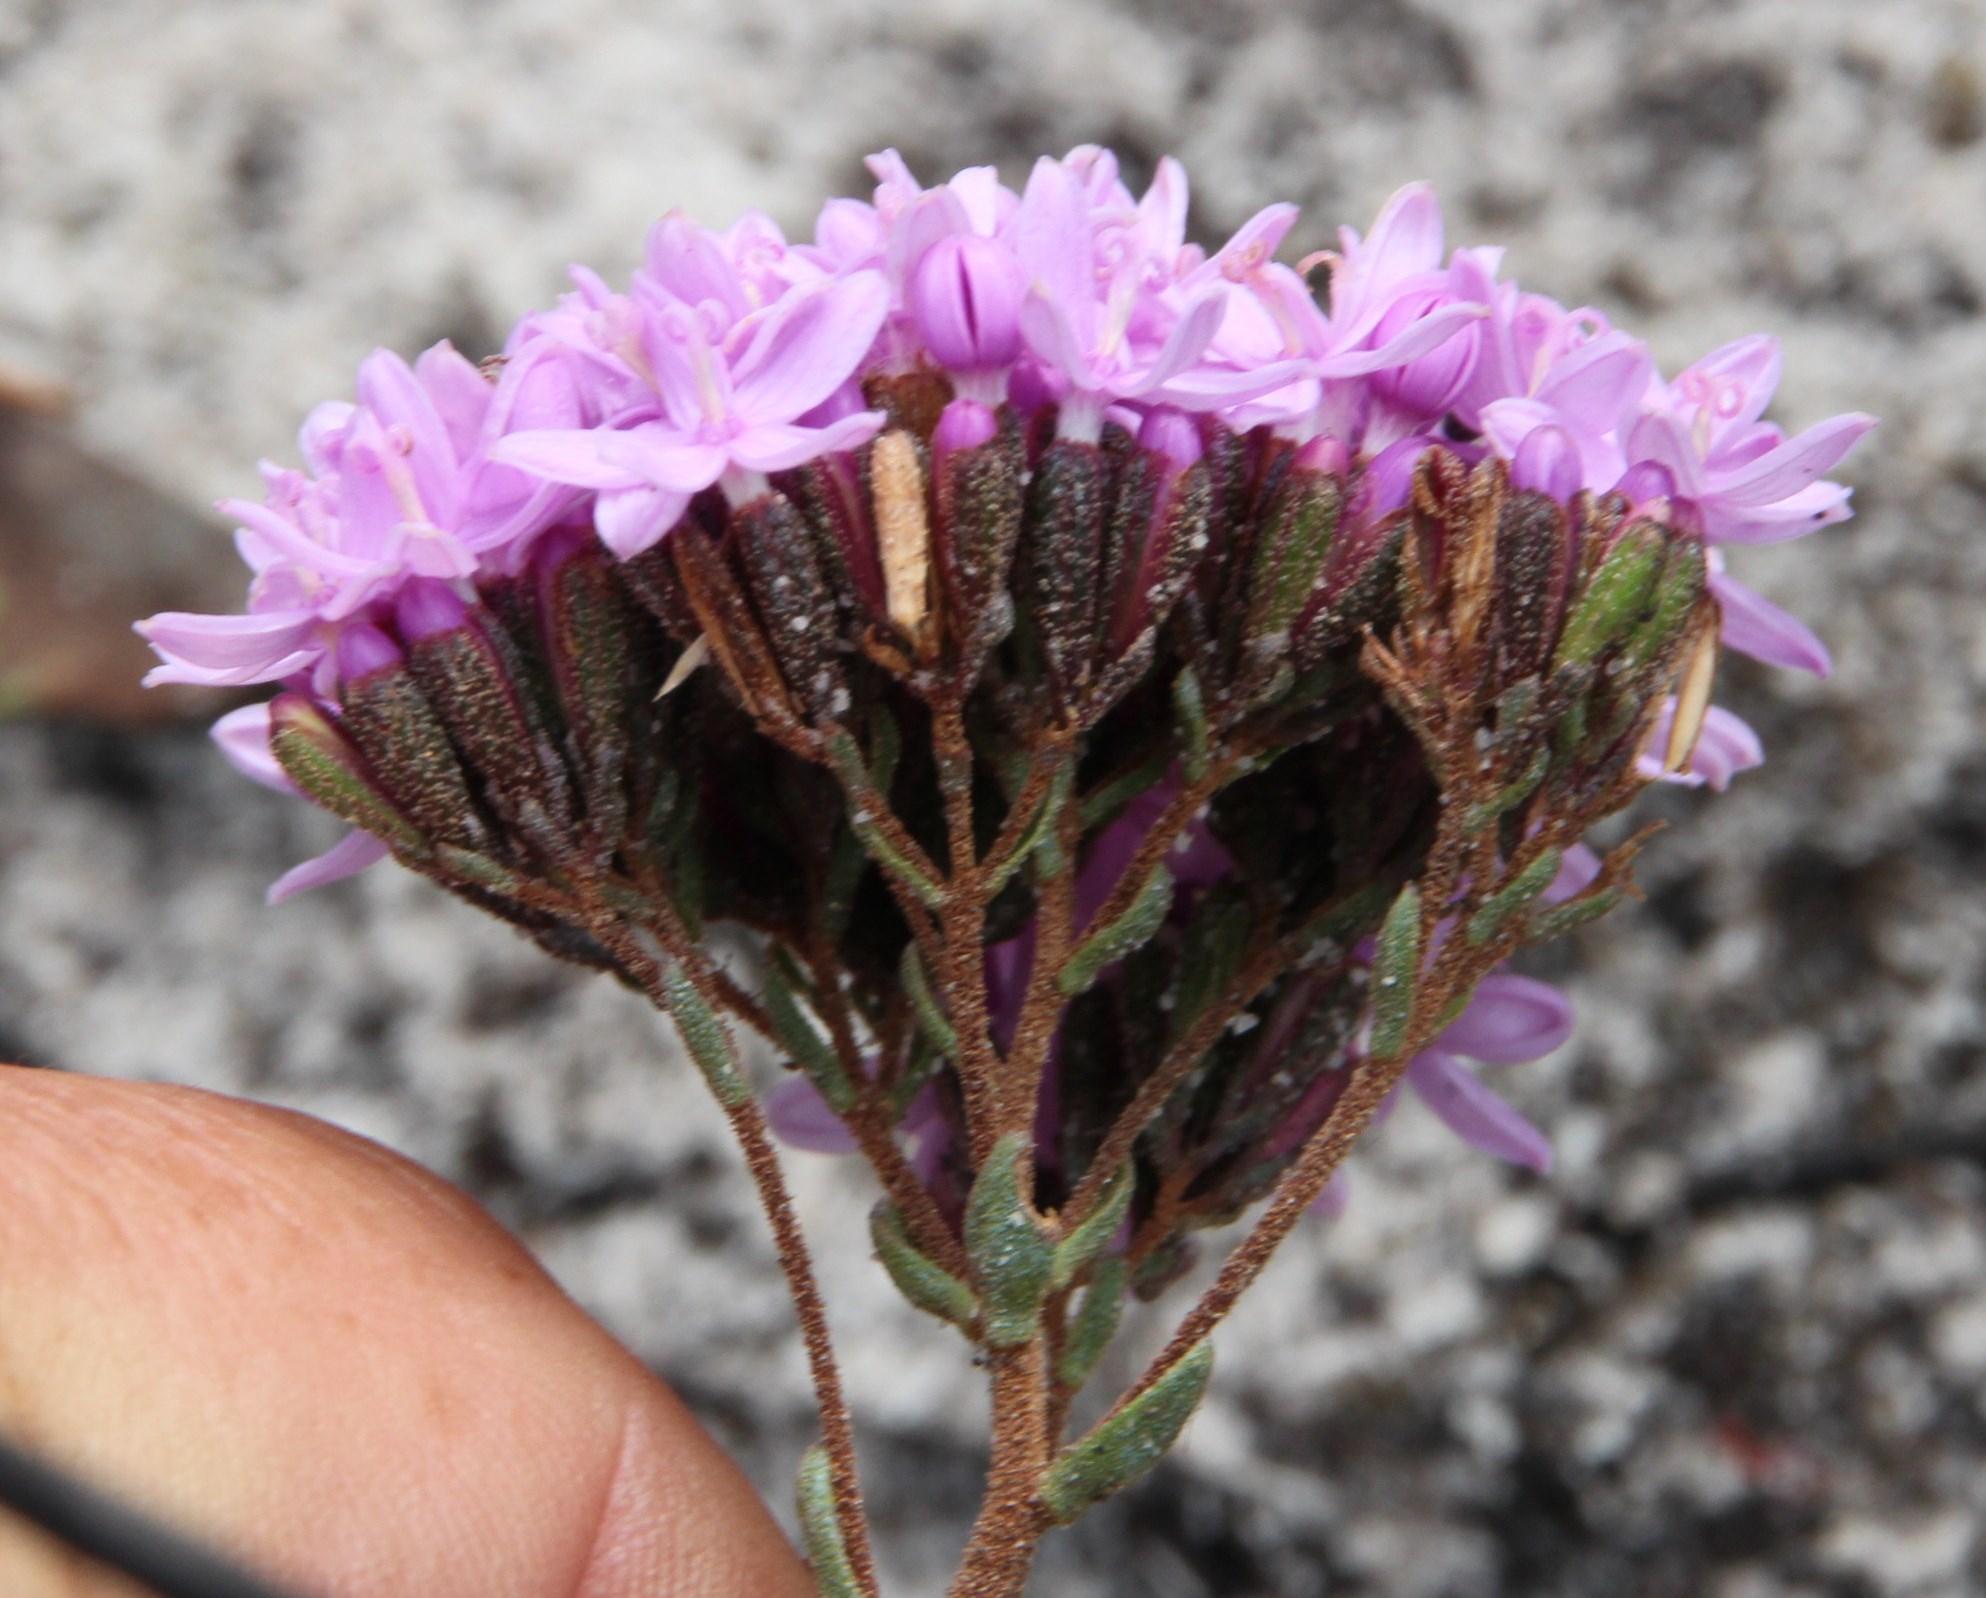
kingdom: Plantae
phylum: Tracheophyta
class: Magnoliopsida
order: Asterales
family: Asteraceae
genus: Corymbium
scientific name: Corymbium africanum
